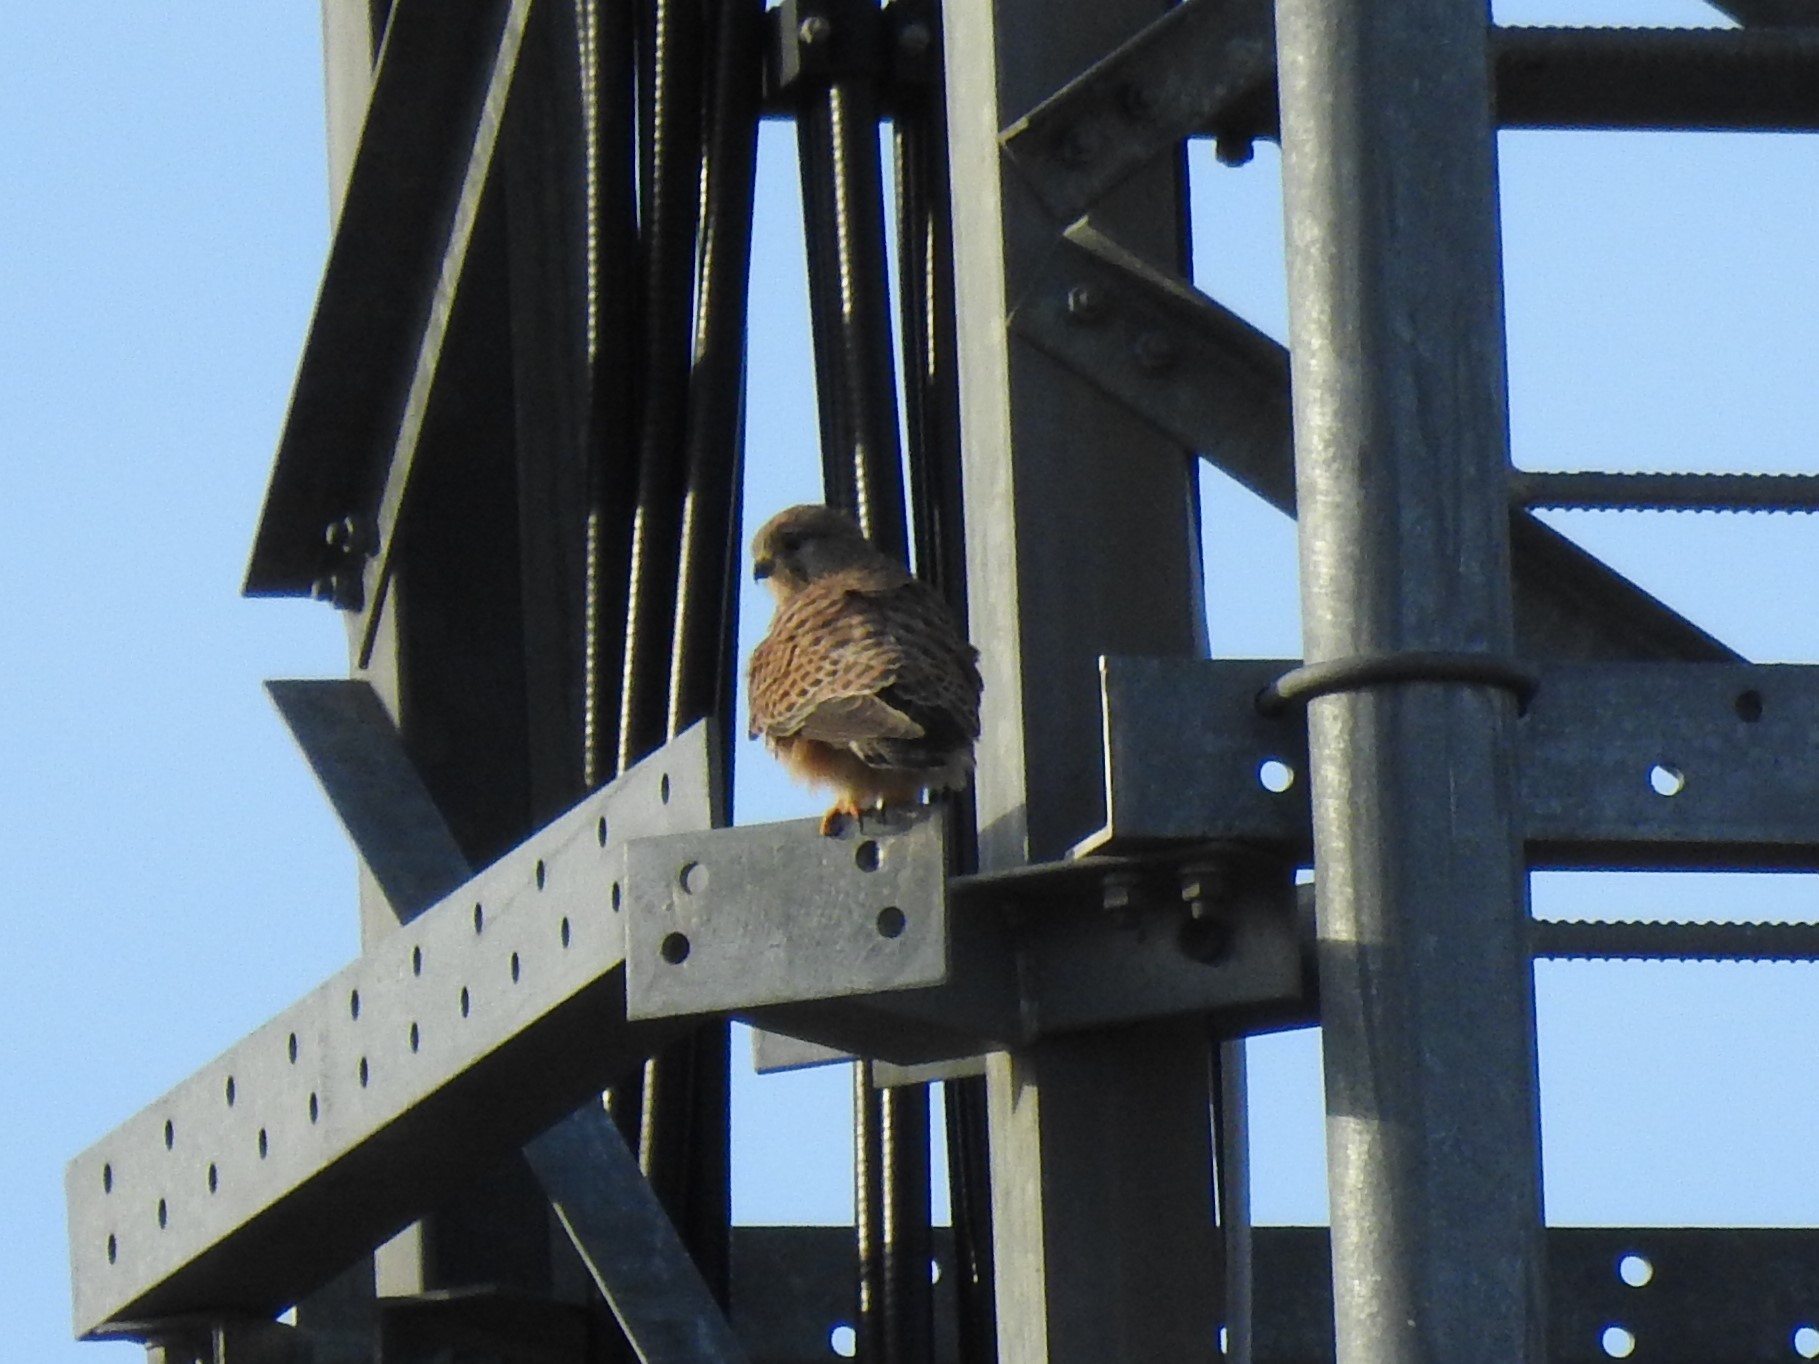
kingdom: Animalia
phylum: Chordata
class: Aves
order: Falconiformes
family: Falconidae
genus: Falco
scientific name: Falco tinnunculus
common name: Common kestrel
